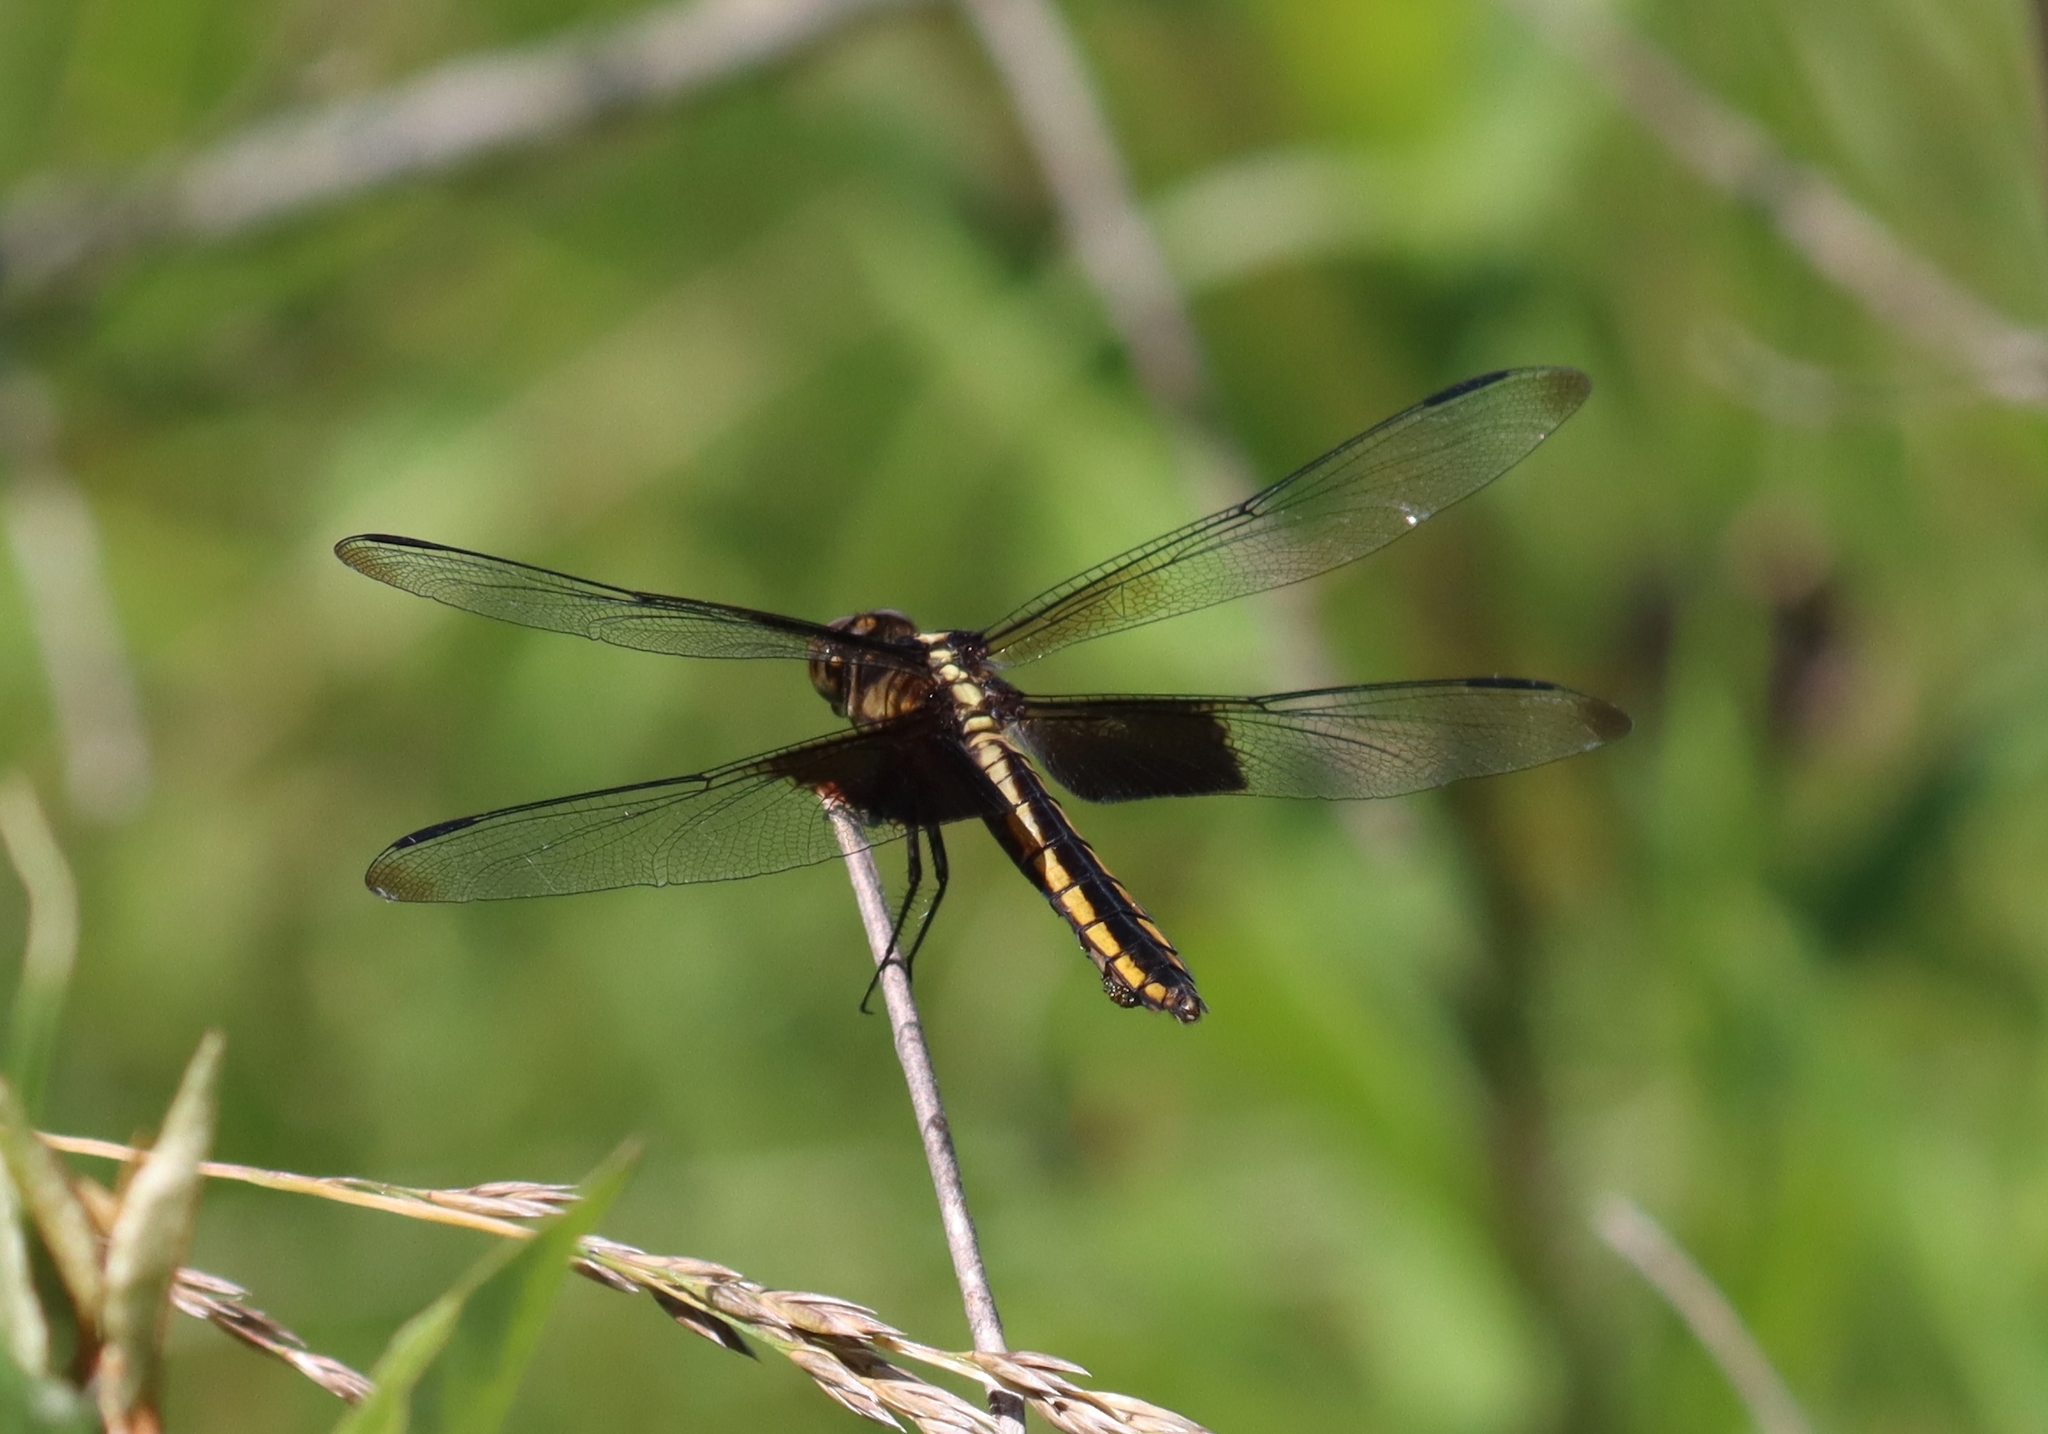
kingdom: Animalia
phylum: Arthropoda
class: Insecta
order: Odonata
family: Libellulidae
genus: Libellula
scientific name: Libellula luctuosa
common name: Widow skimmer
